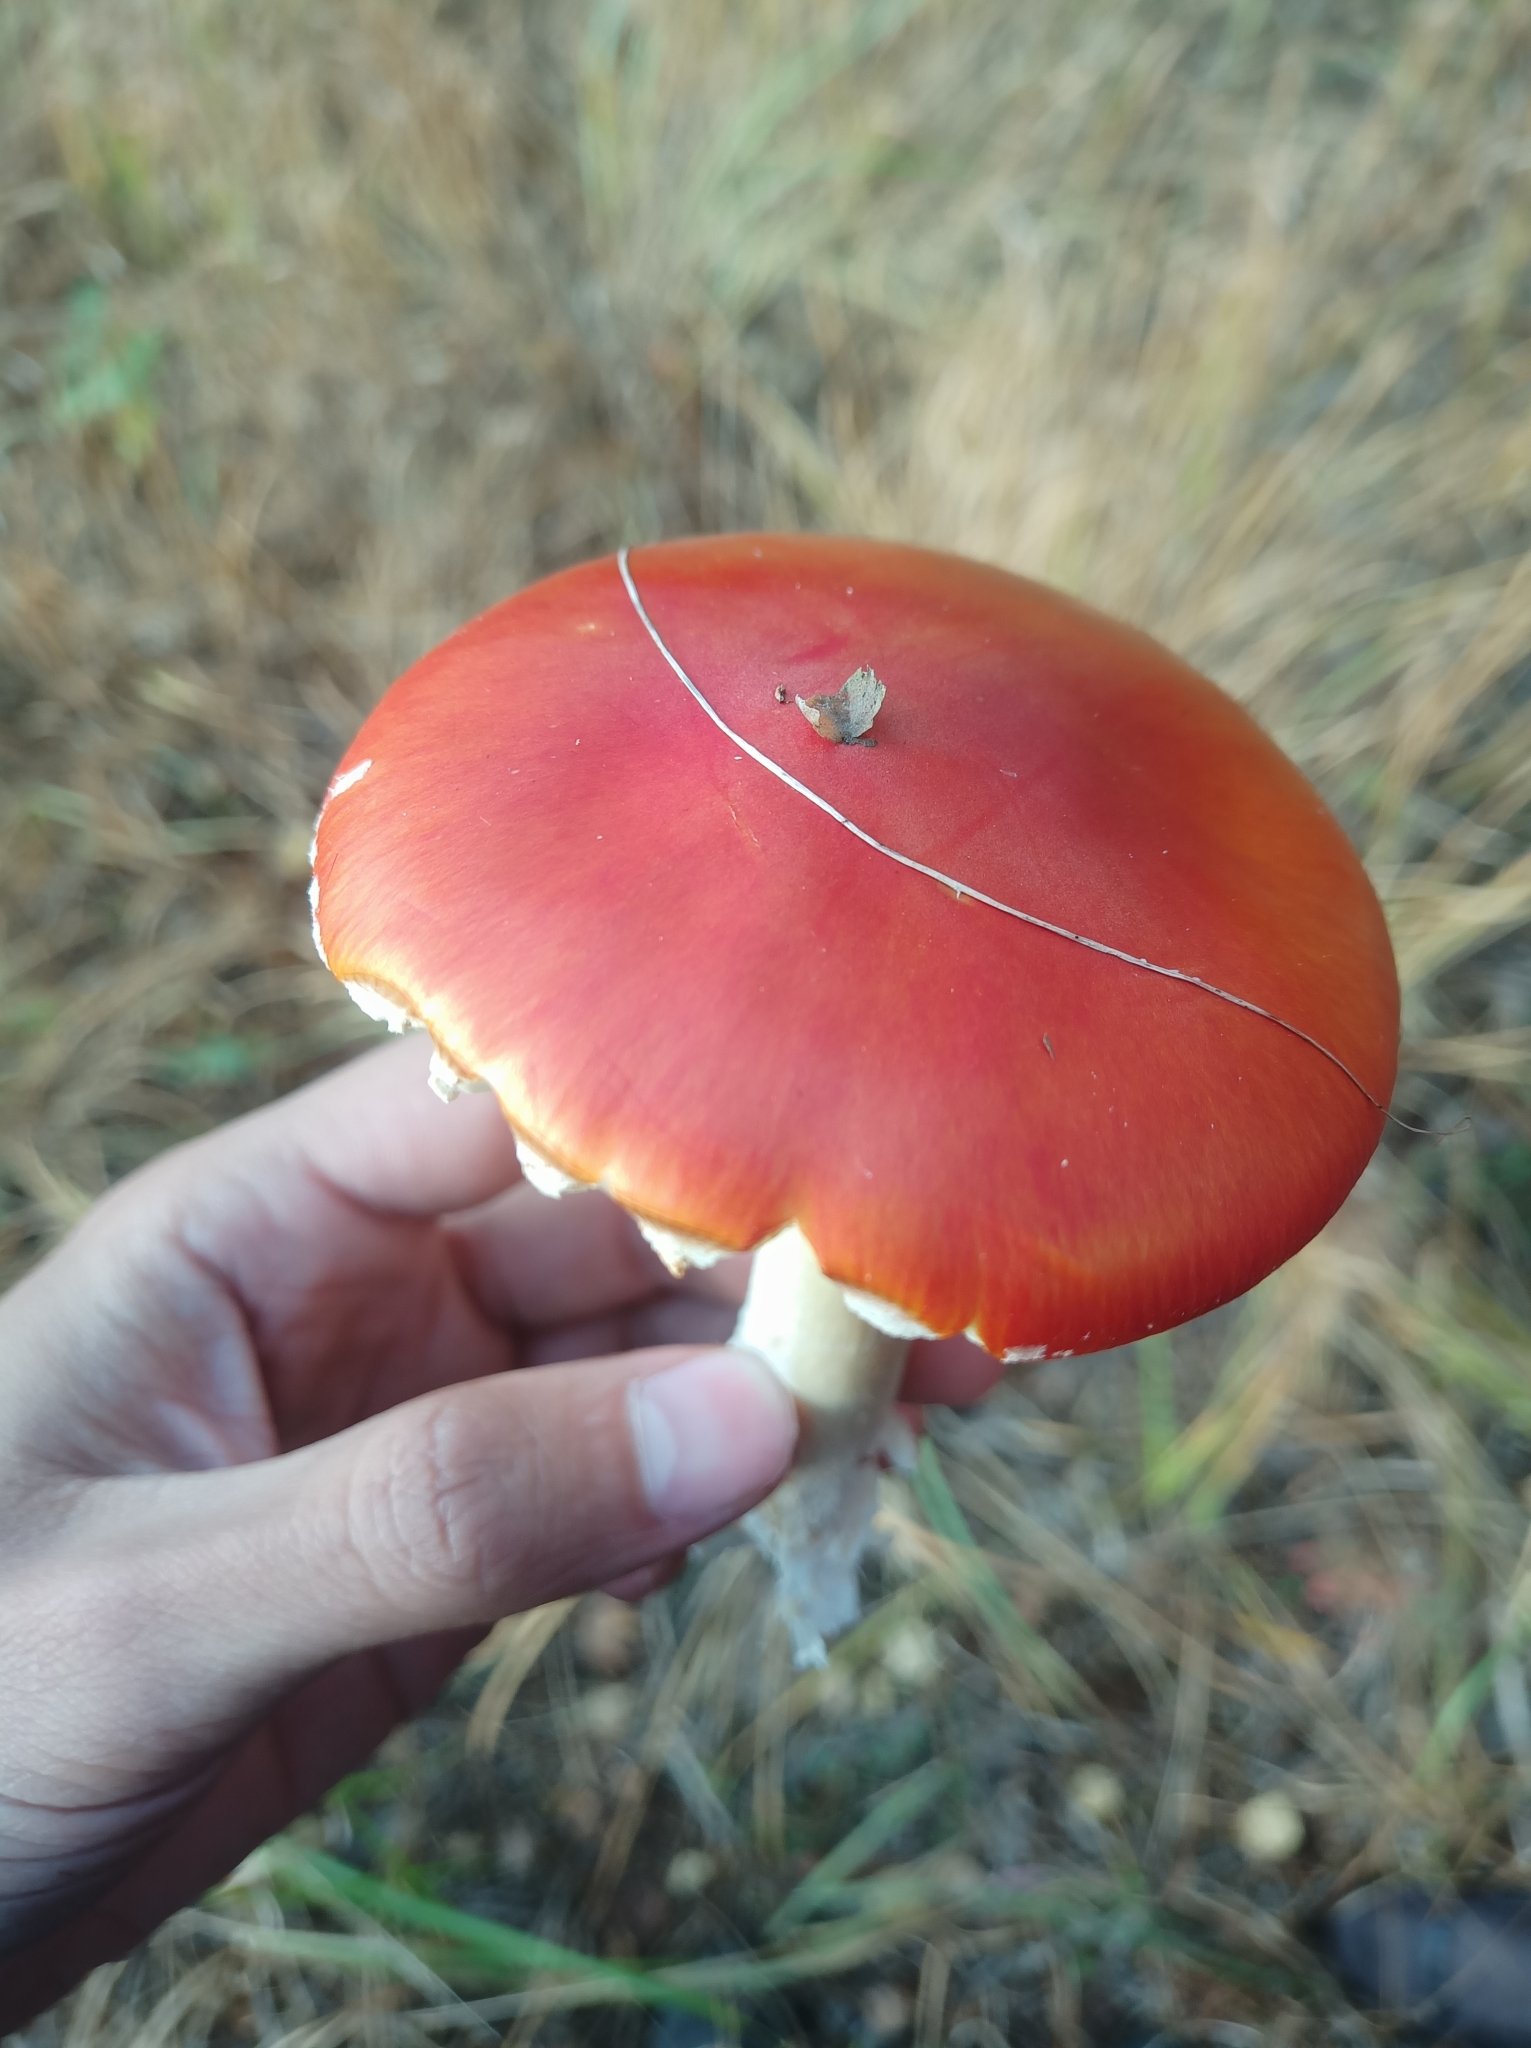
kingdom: Fungi
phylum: Basidiomycota
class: Agaricomycetes
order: Agaricales
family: Amanitaceae
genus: Amanita
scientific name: Amanita muscaria
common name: Fly agaric
